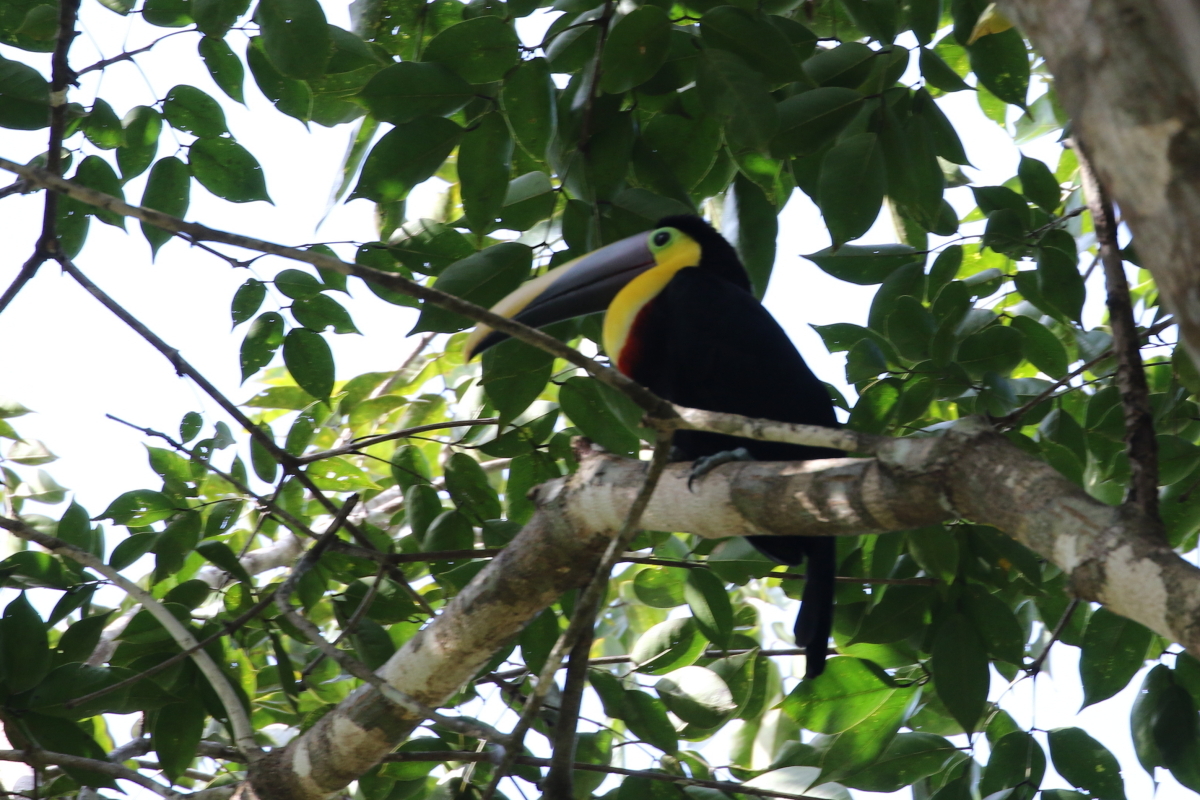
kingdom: Animalia
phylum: Chordata
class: Aves
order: Piciformes
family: Ramphastidae
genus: Ramphastos
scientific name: Ramphastos ambiguus
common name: Yellow-throated toucan
